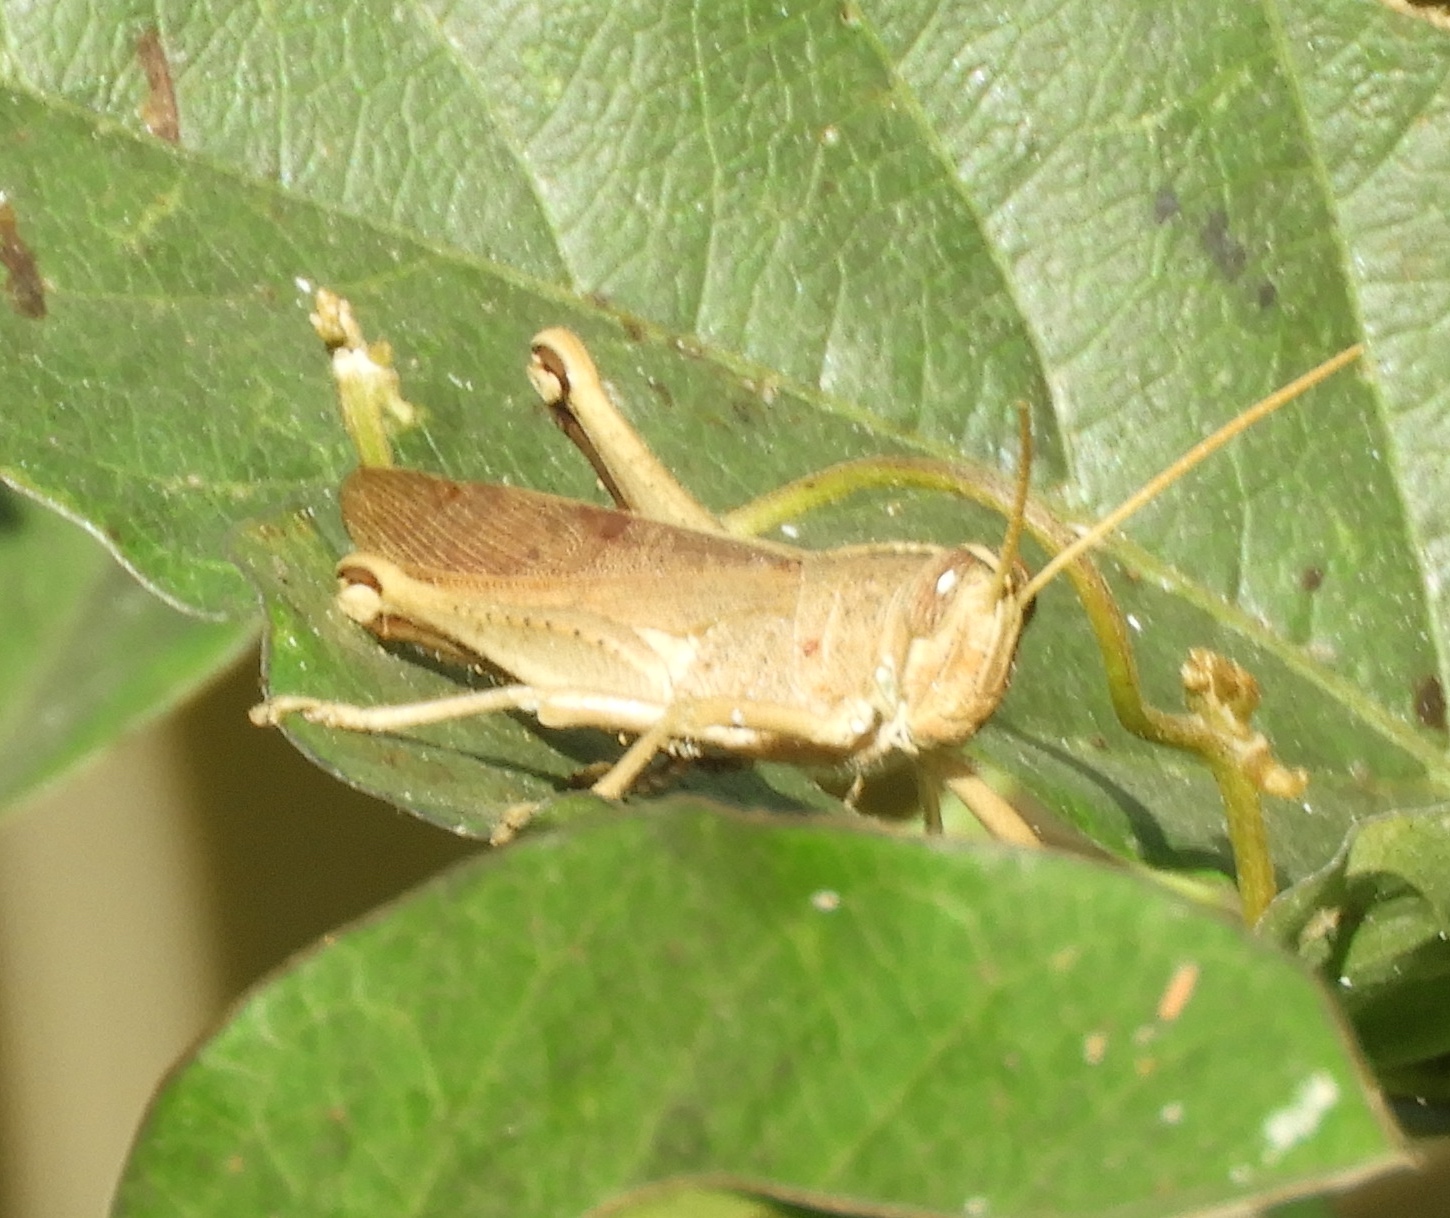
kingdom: Animalia
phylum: Arthropoda
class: Insecta
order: Orthoptera
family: Acrididae
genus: Schistocerca
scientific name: Schistocerca camerata
